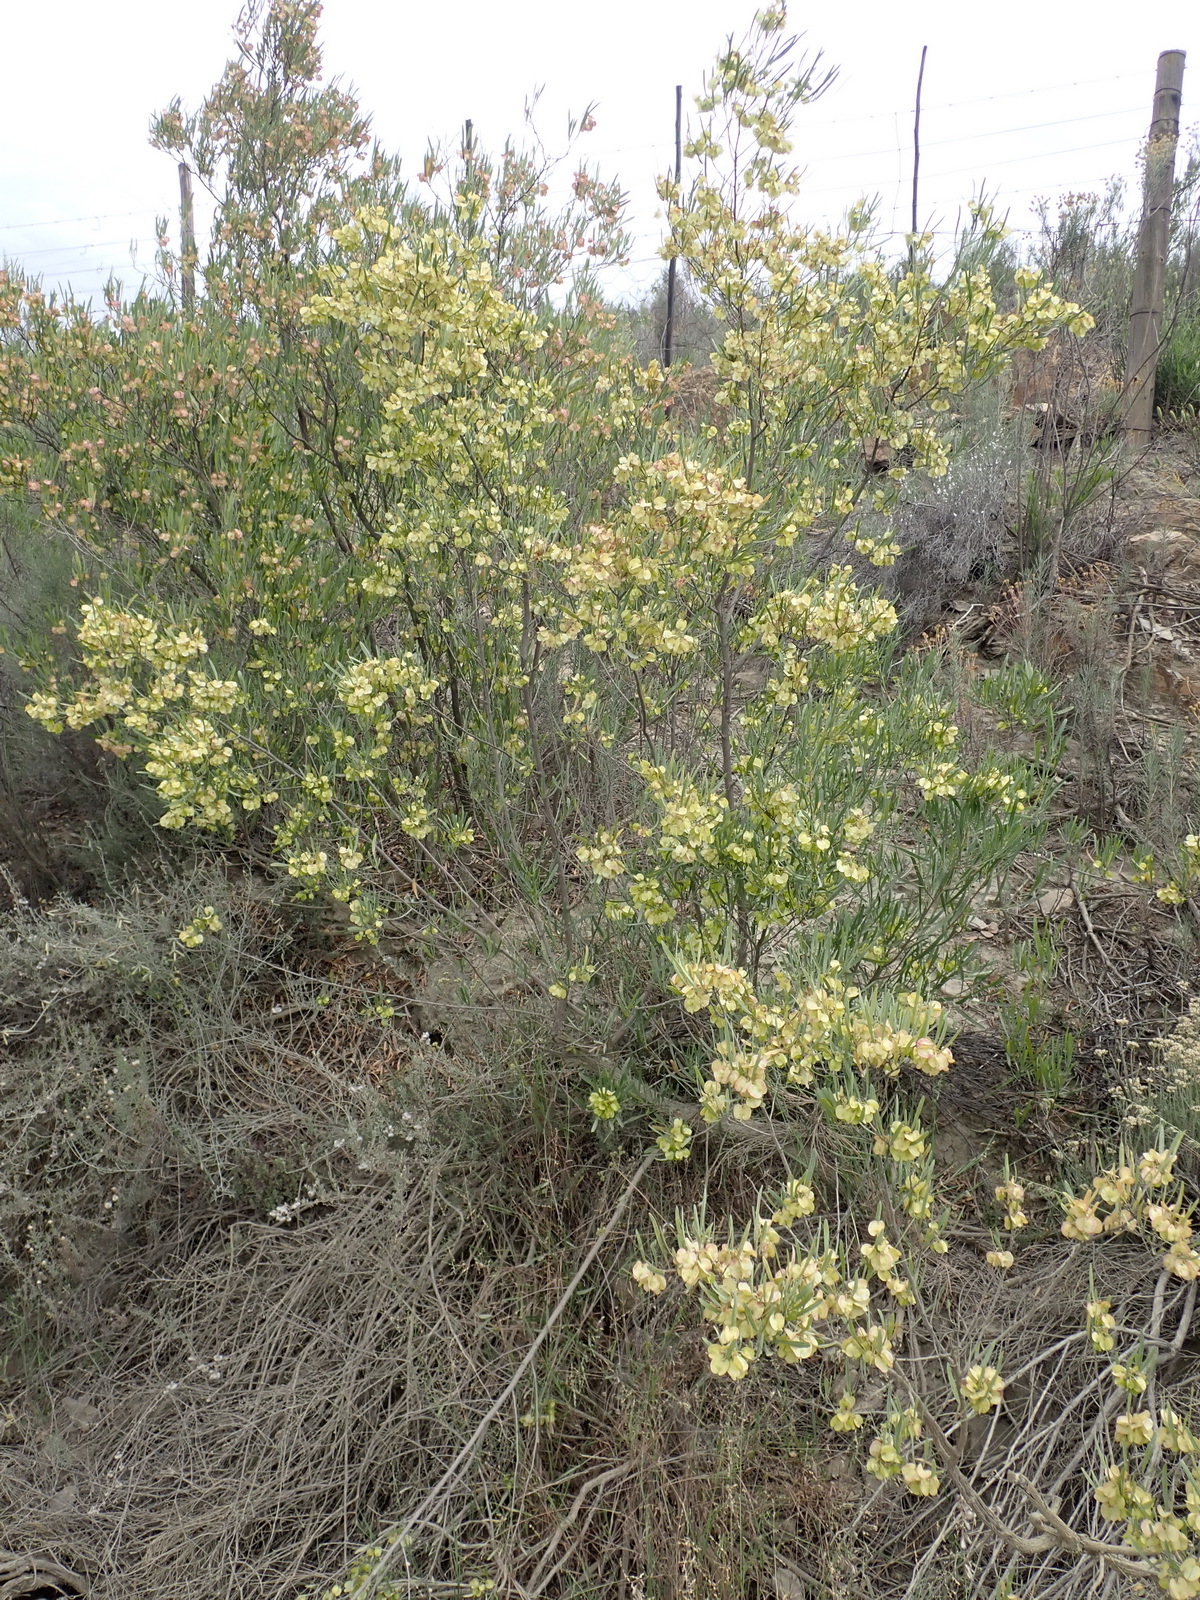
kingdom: Plantae
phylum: Tracheophyta
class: Magnoliopsida
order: Sapindales
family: Sapindaceae
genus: Dodonaea
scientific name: Dodonaea viscosa
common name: Hopbush
